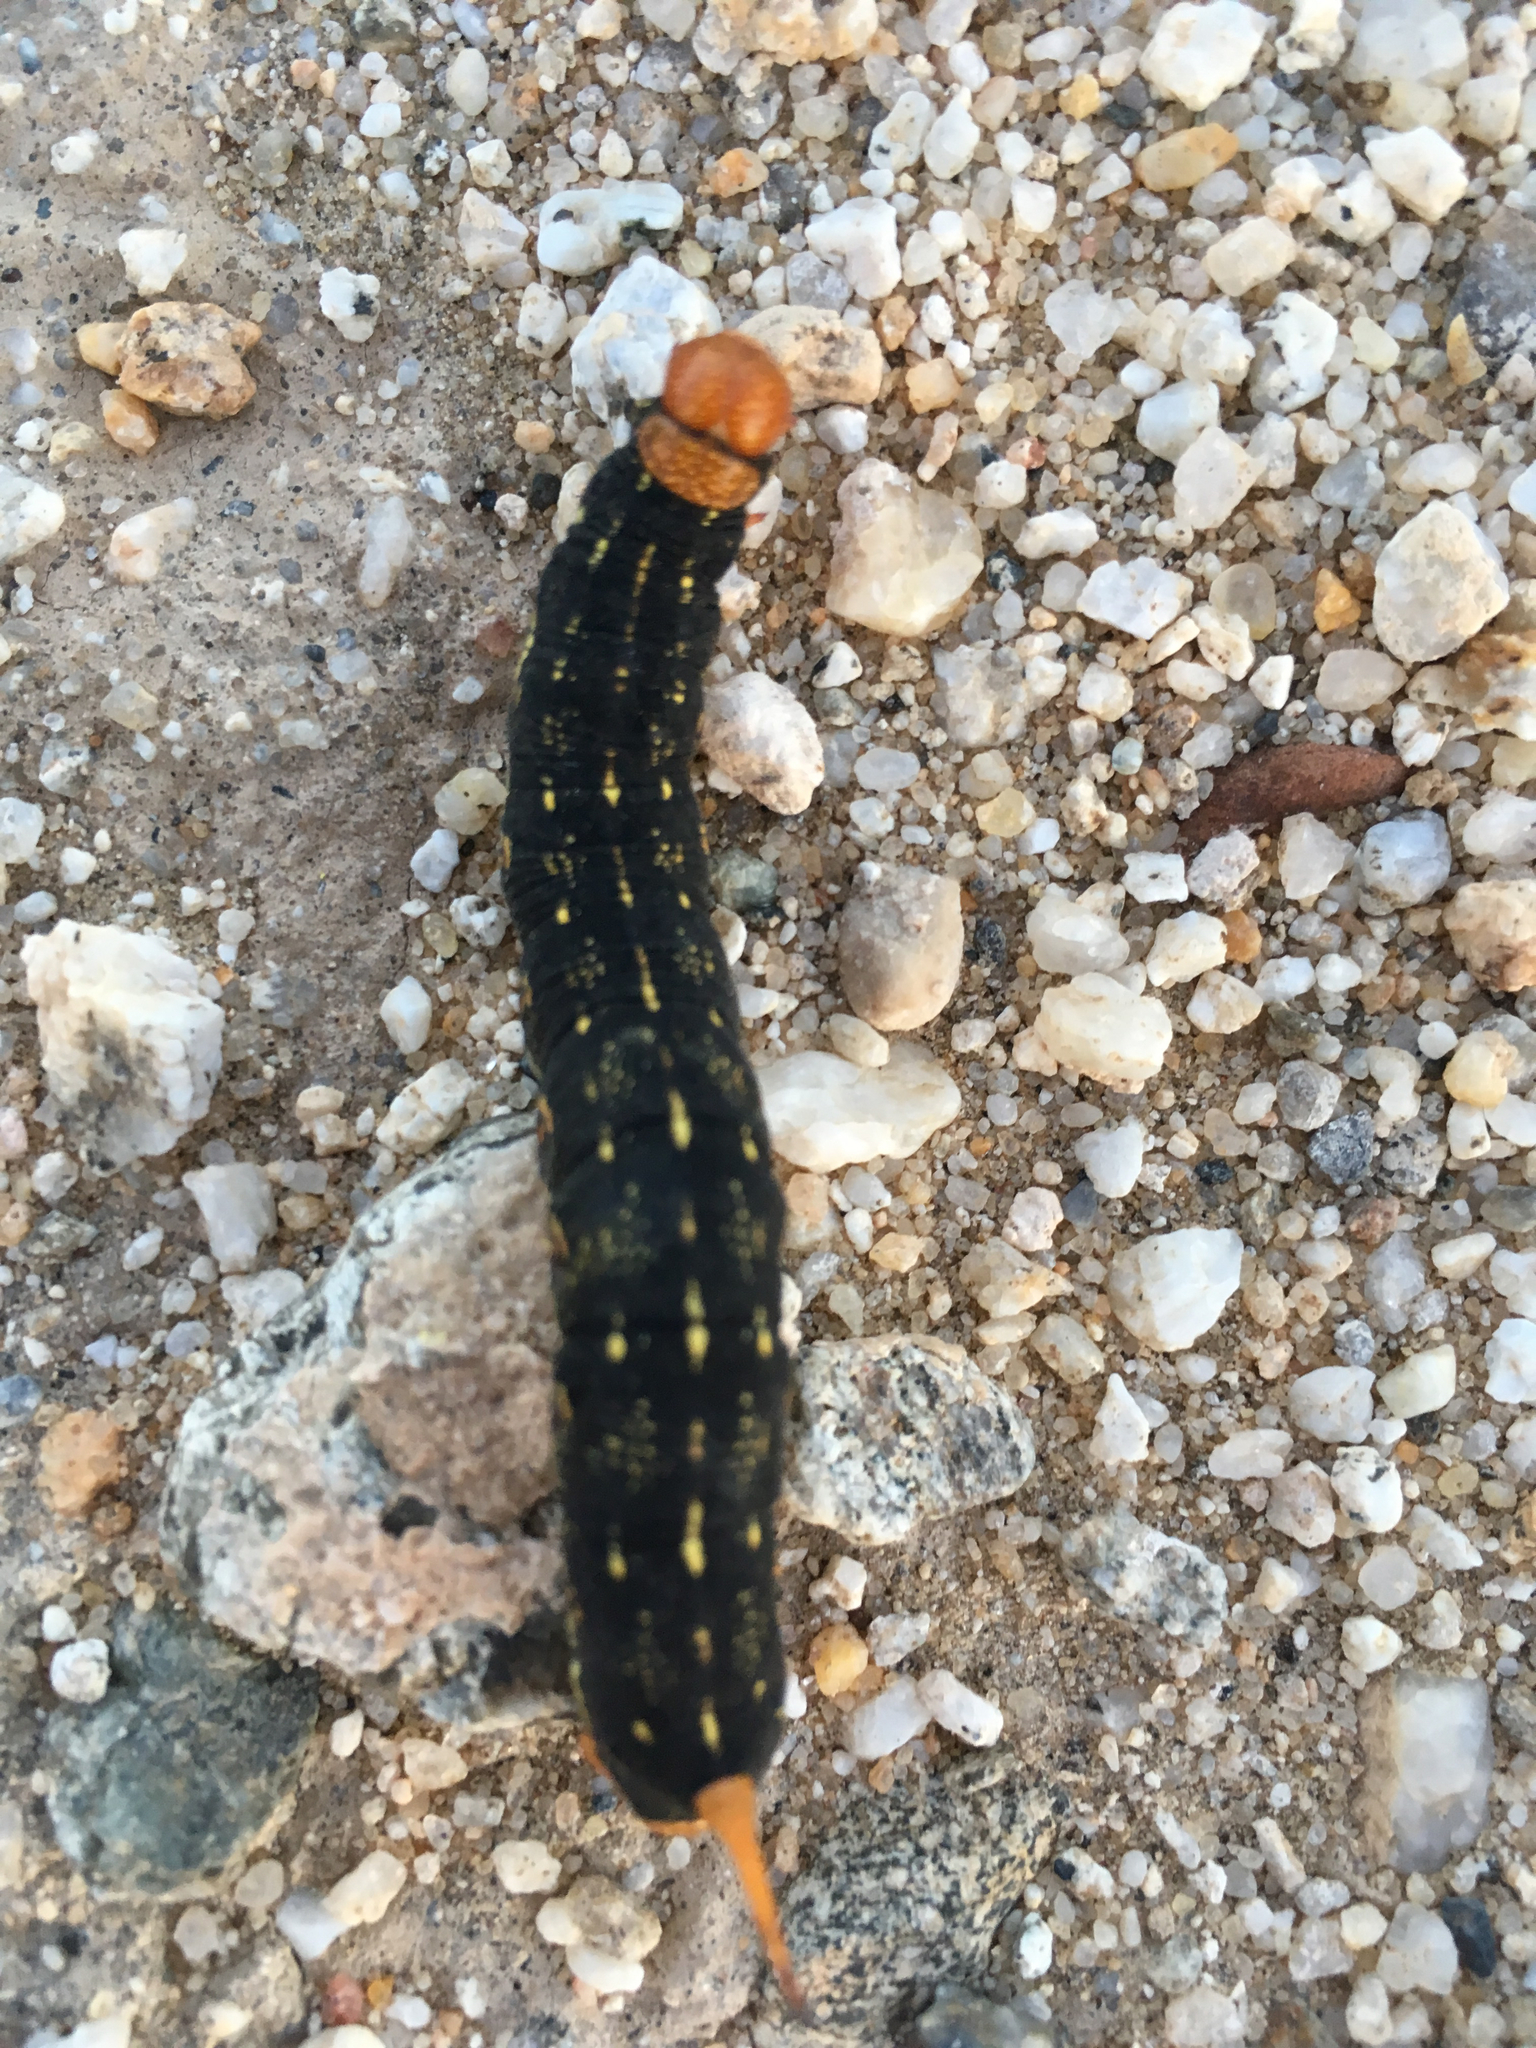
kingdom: Animalia
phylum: Arthropoda
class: Insecta
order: Lepidoptera
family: Sphingidae
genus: Hyles
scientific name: Hyles lineata
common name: White-lined sphinx
